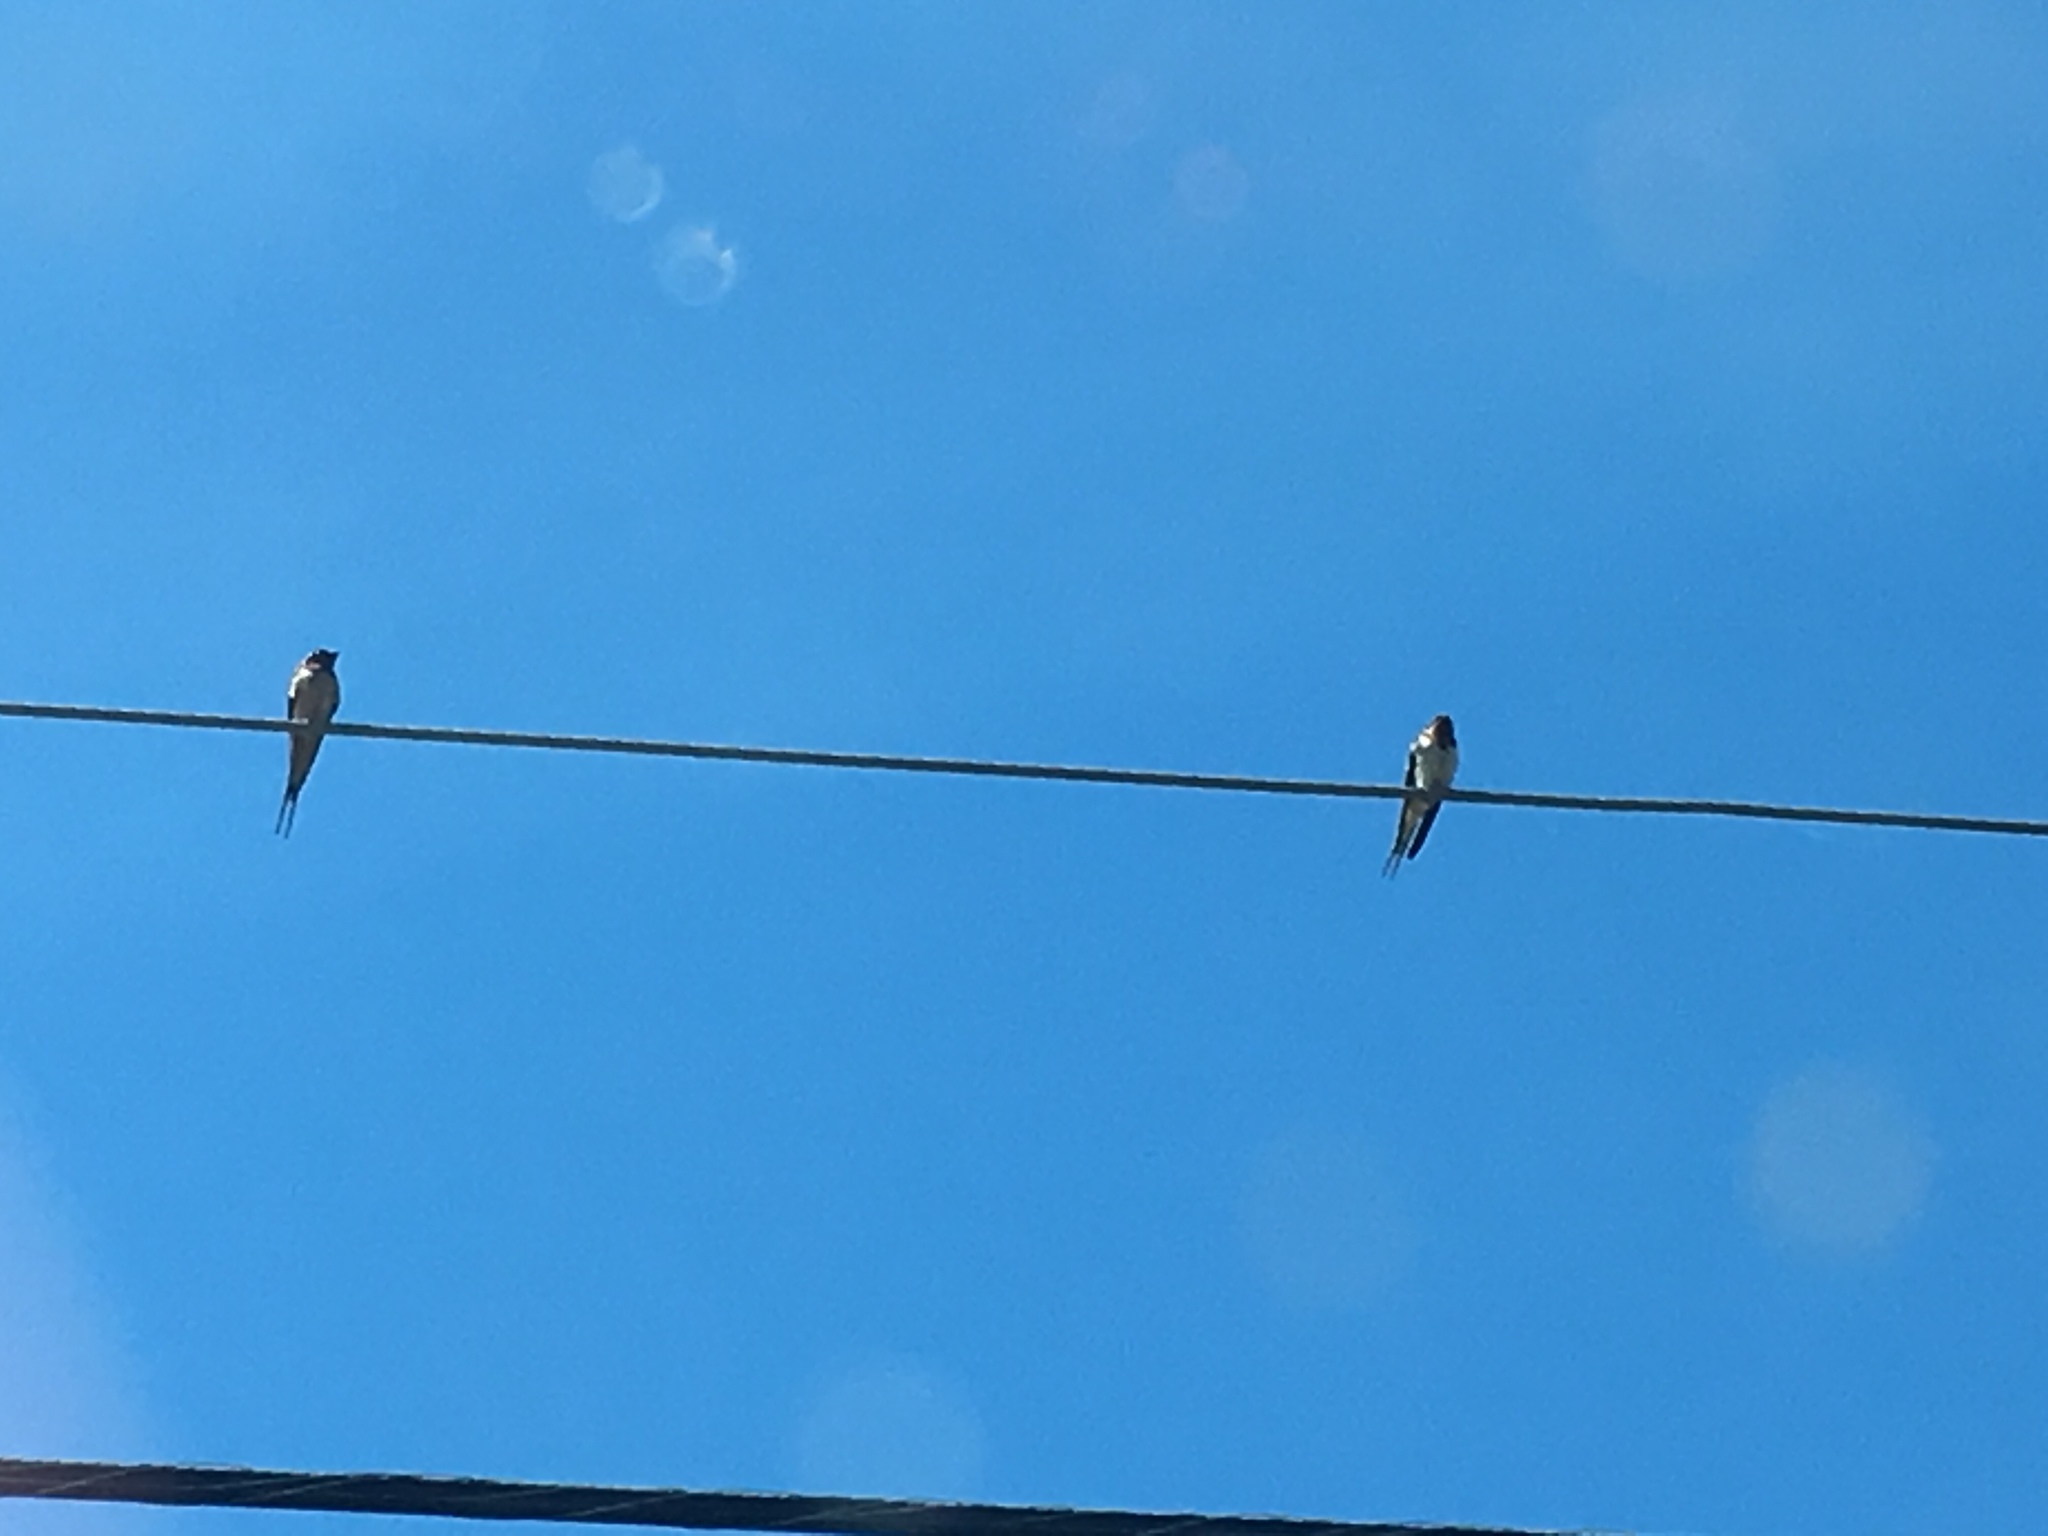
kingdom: Animalia
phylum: Chordata
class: Aves
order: Passeriformes
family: Hirundinidae
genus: Hirundo
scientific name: Hirundo rustica
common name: Barn swallow
